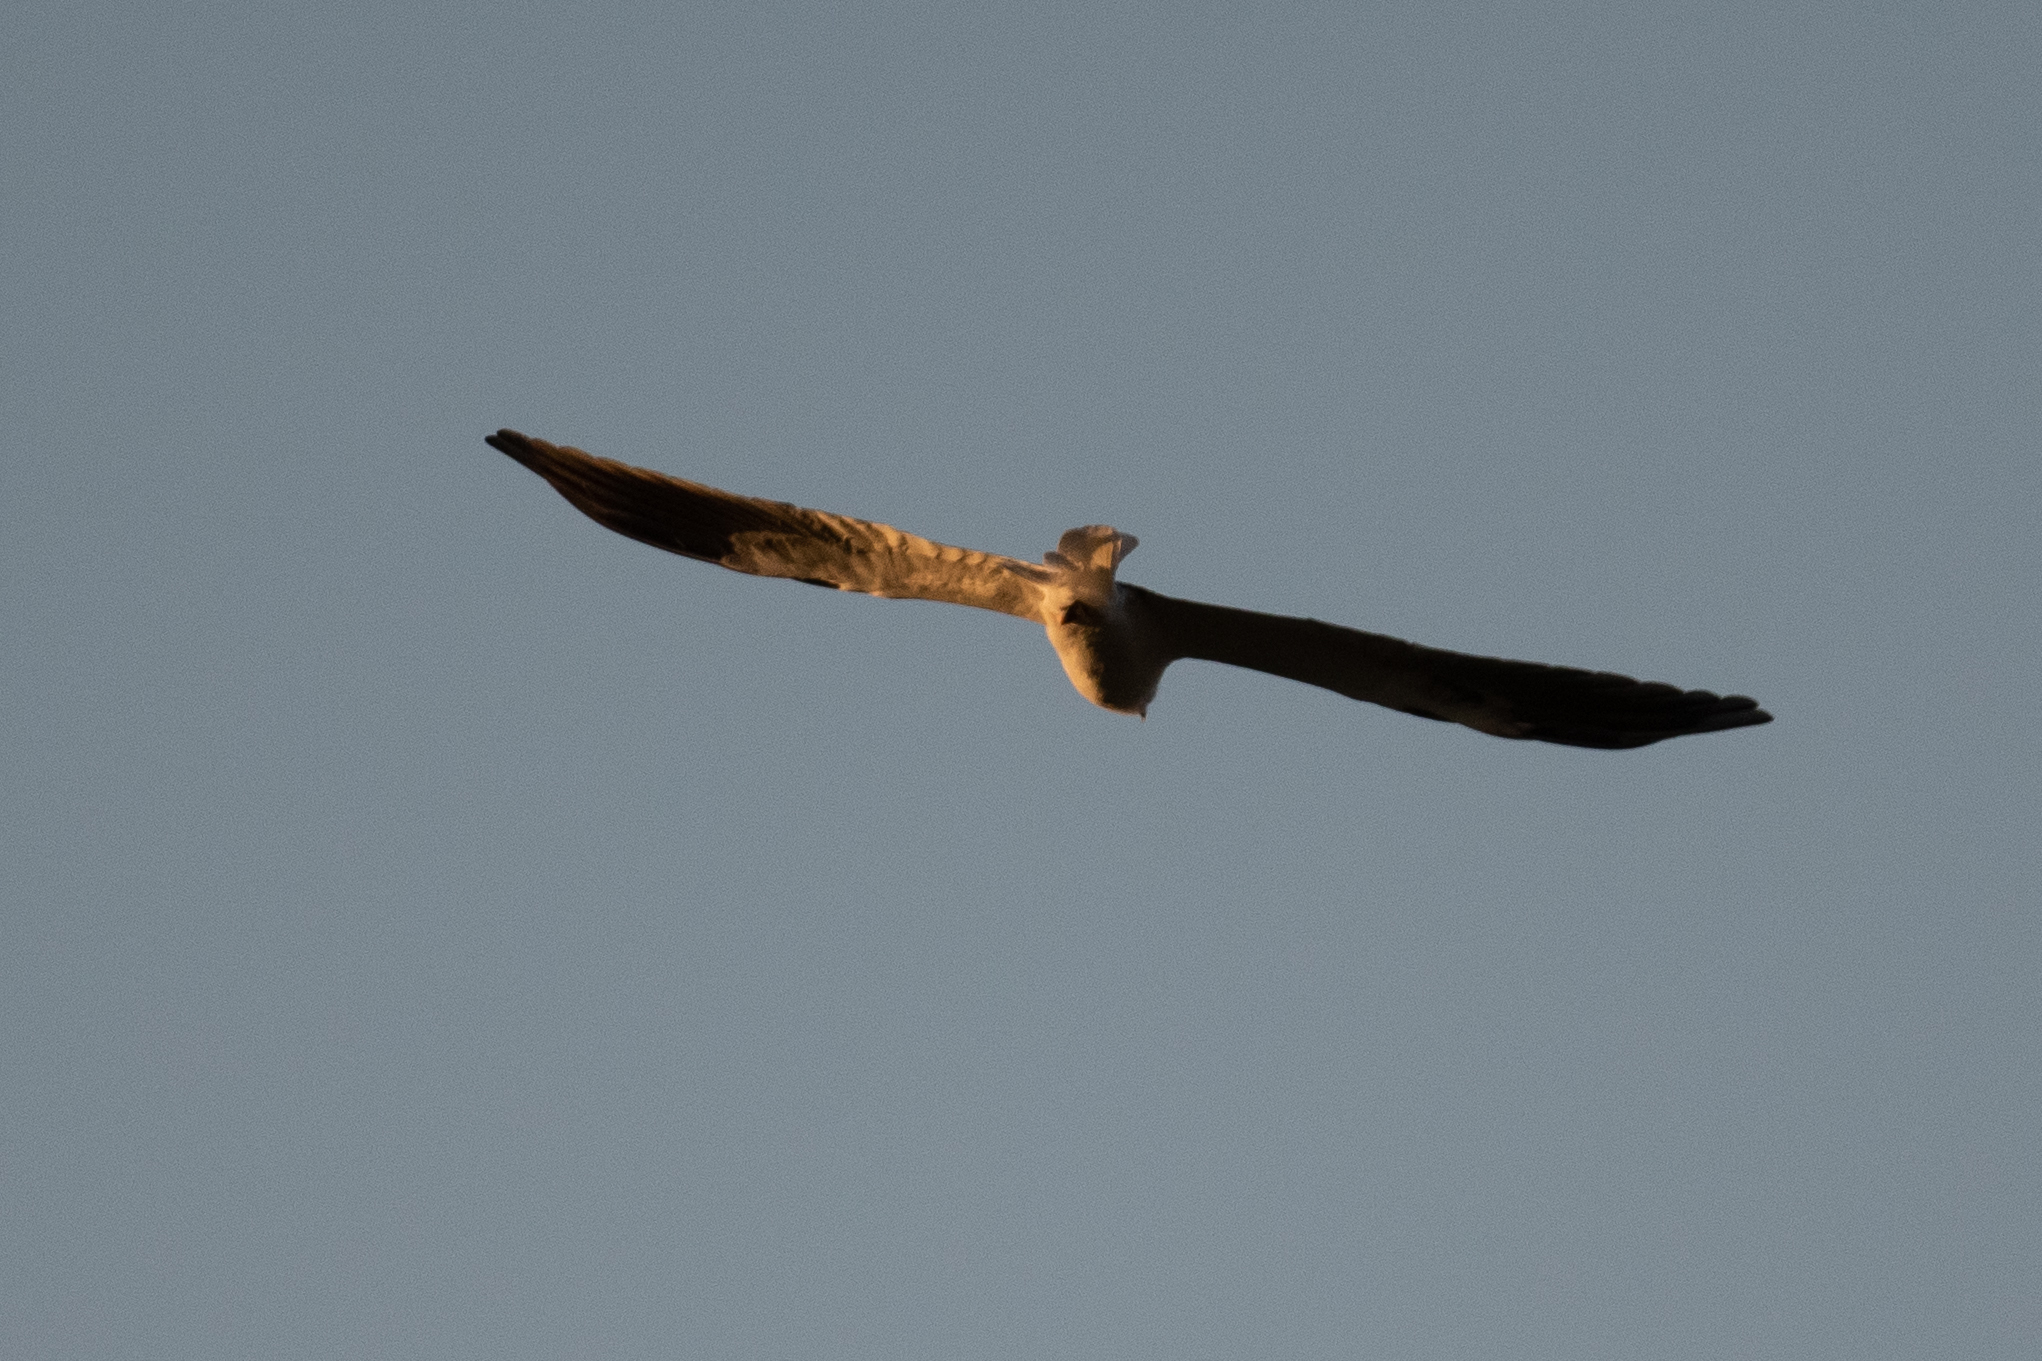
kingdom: Animalia
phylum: Chordata
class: Aves
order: Accipitriformes
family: Accipitridae
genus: Elanus
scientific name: Elanus leucurus
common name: White-tailed kite
